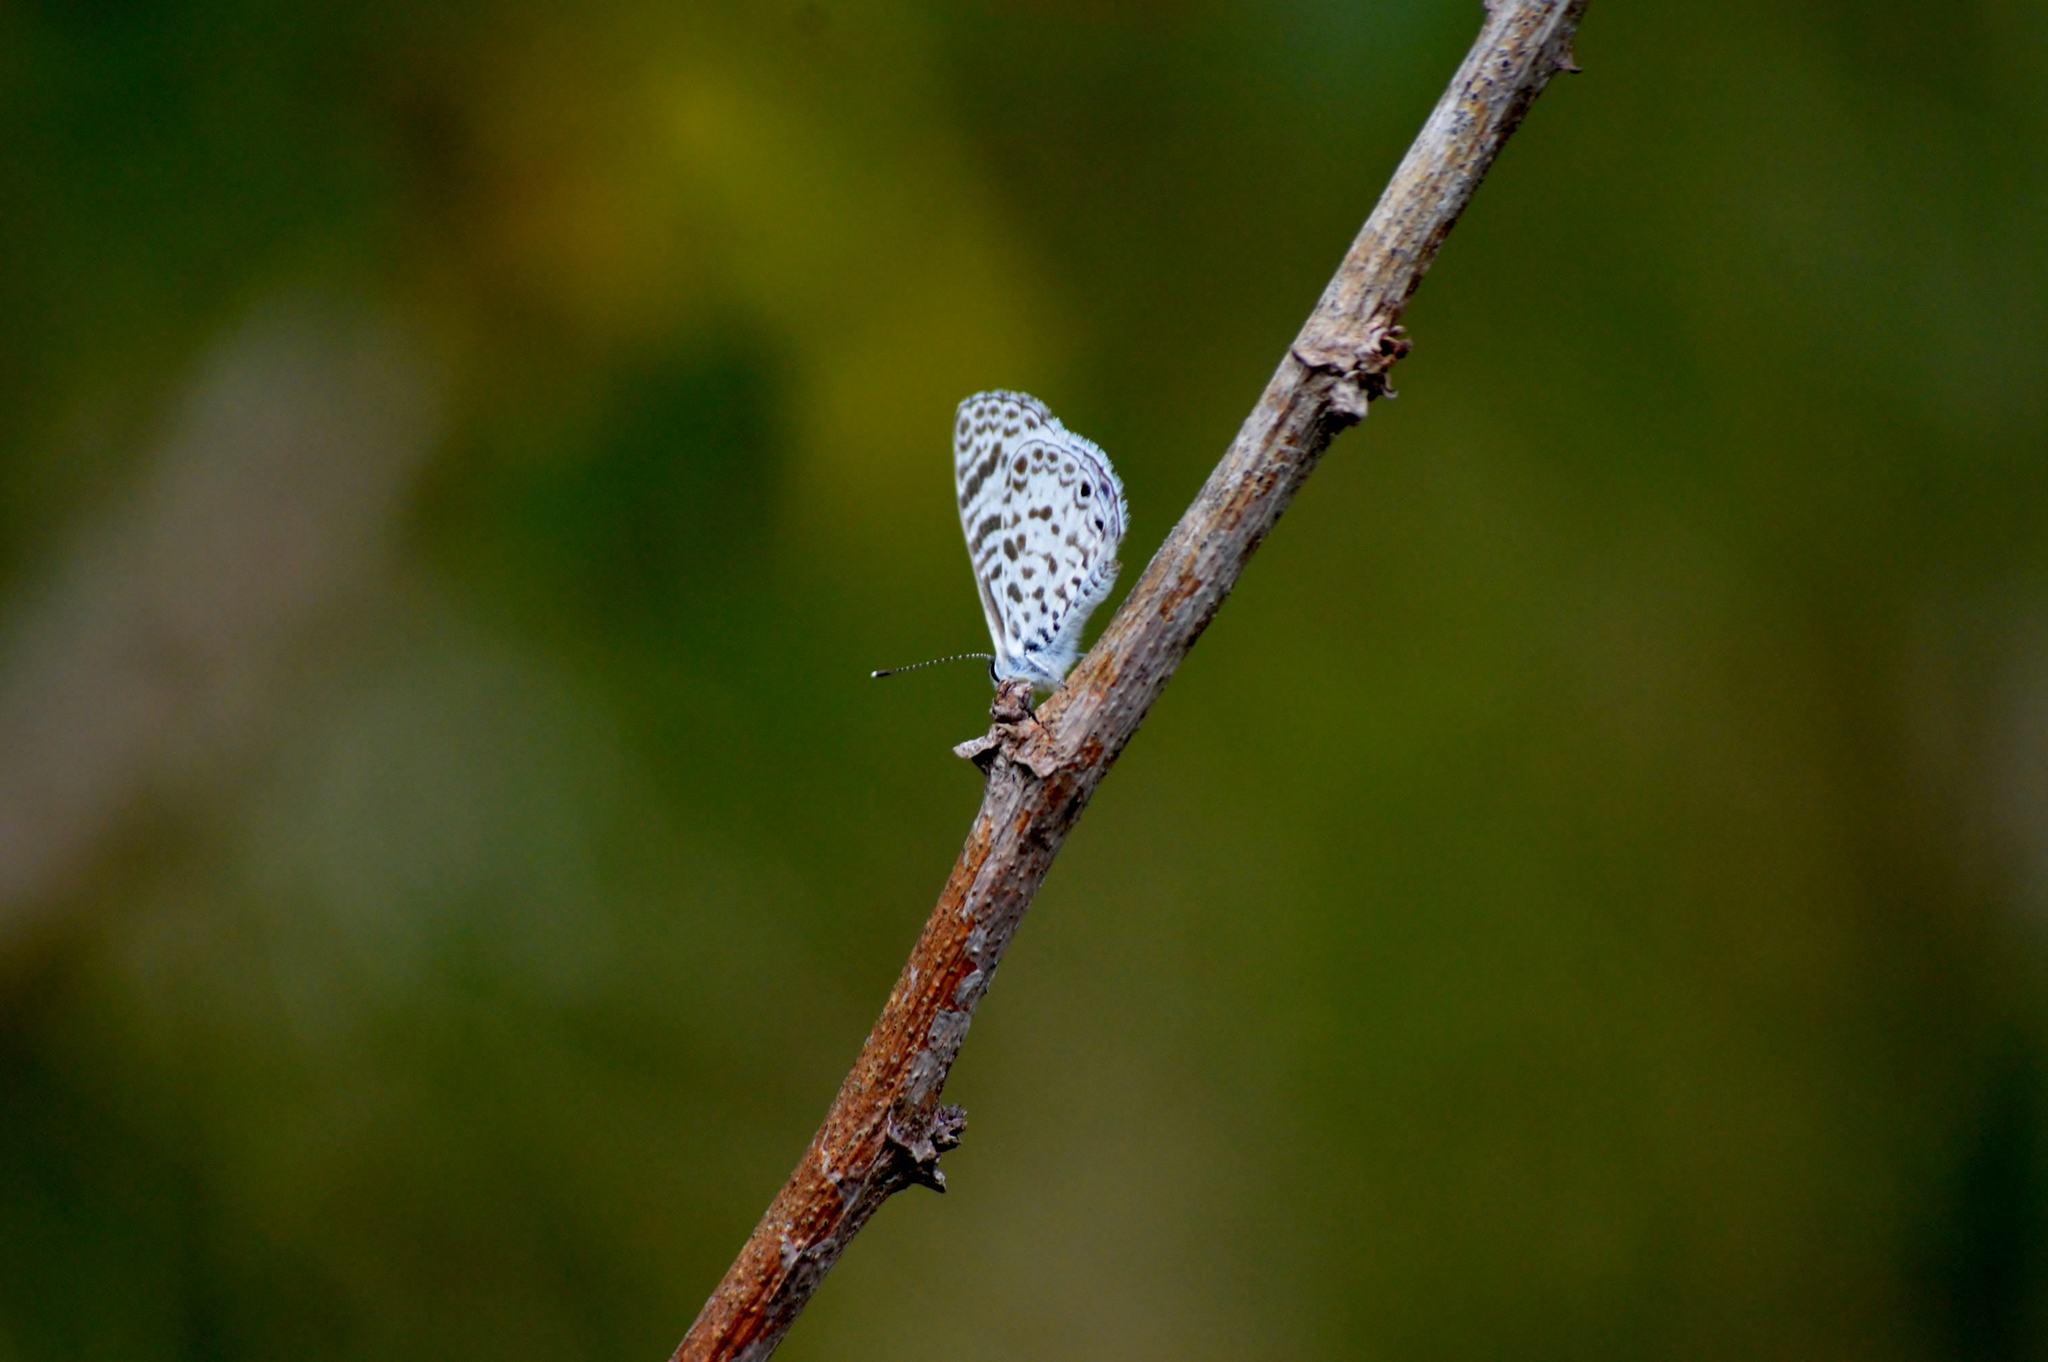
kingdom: Animalia
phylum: Arthropoda
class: Insecta
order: Lepidoptera
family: Lycaenidae
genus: Leptotes
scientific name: Leptotes cassius
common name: Cassius blue
